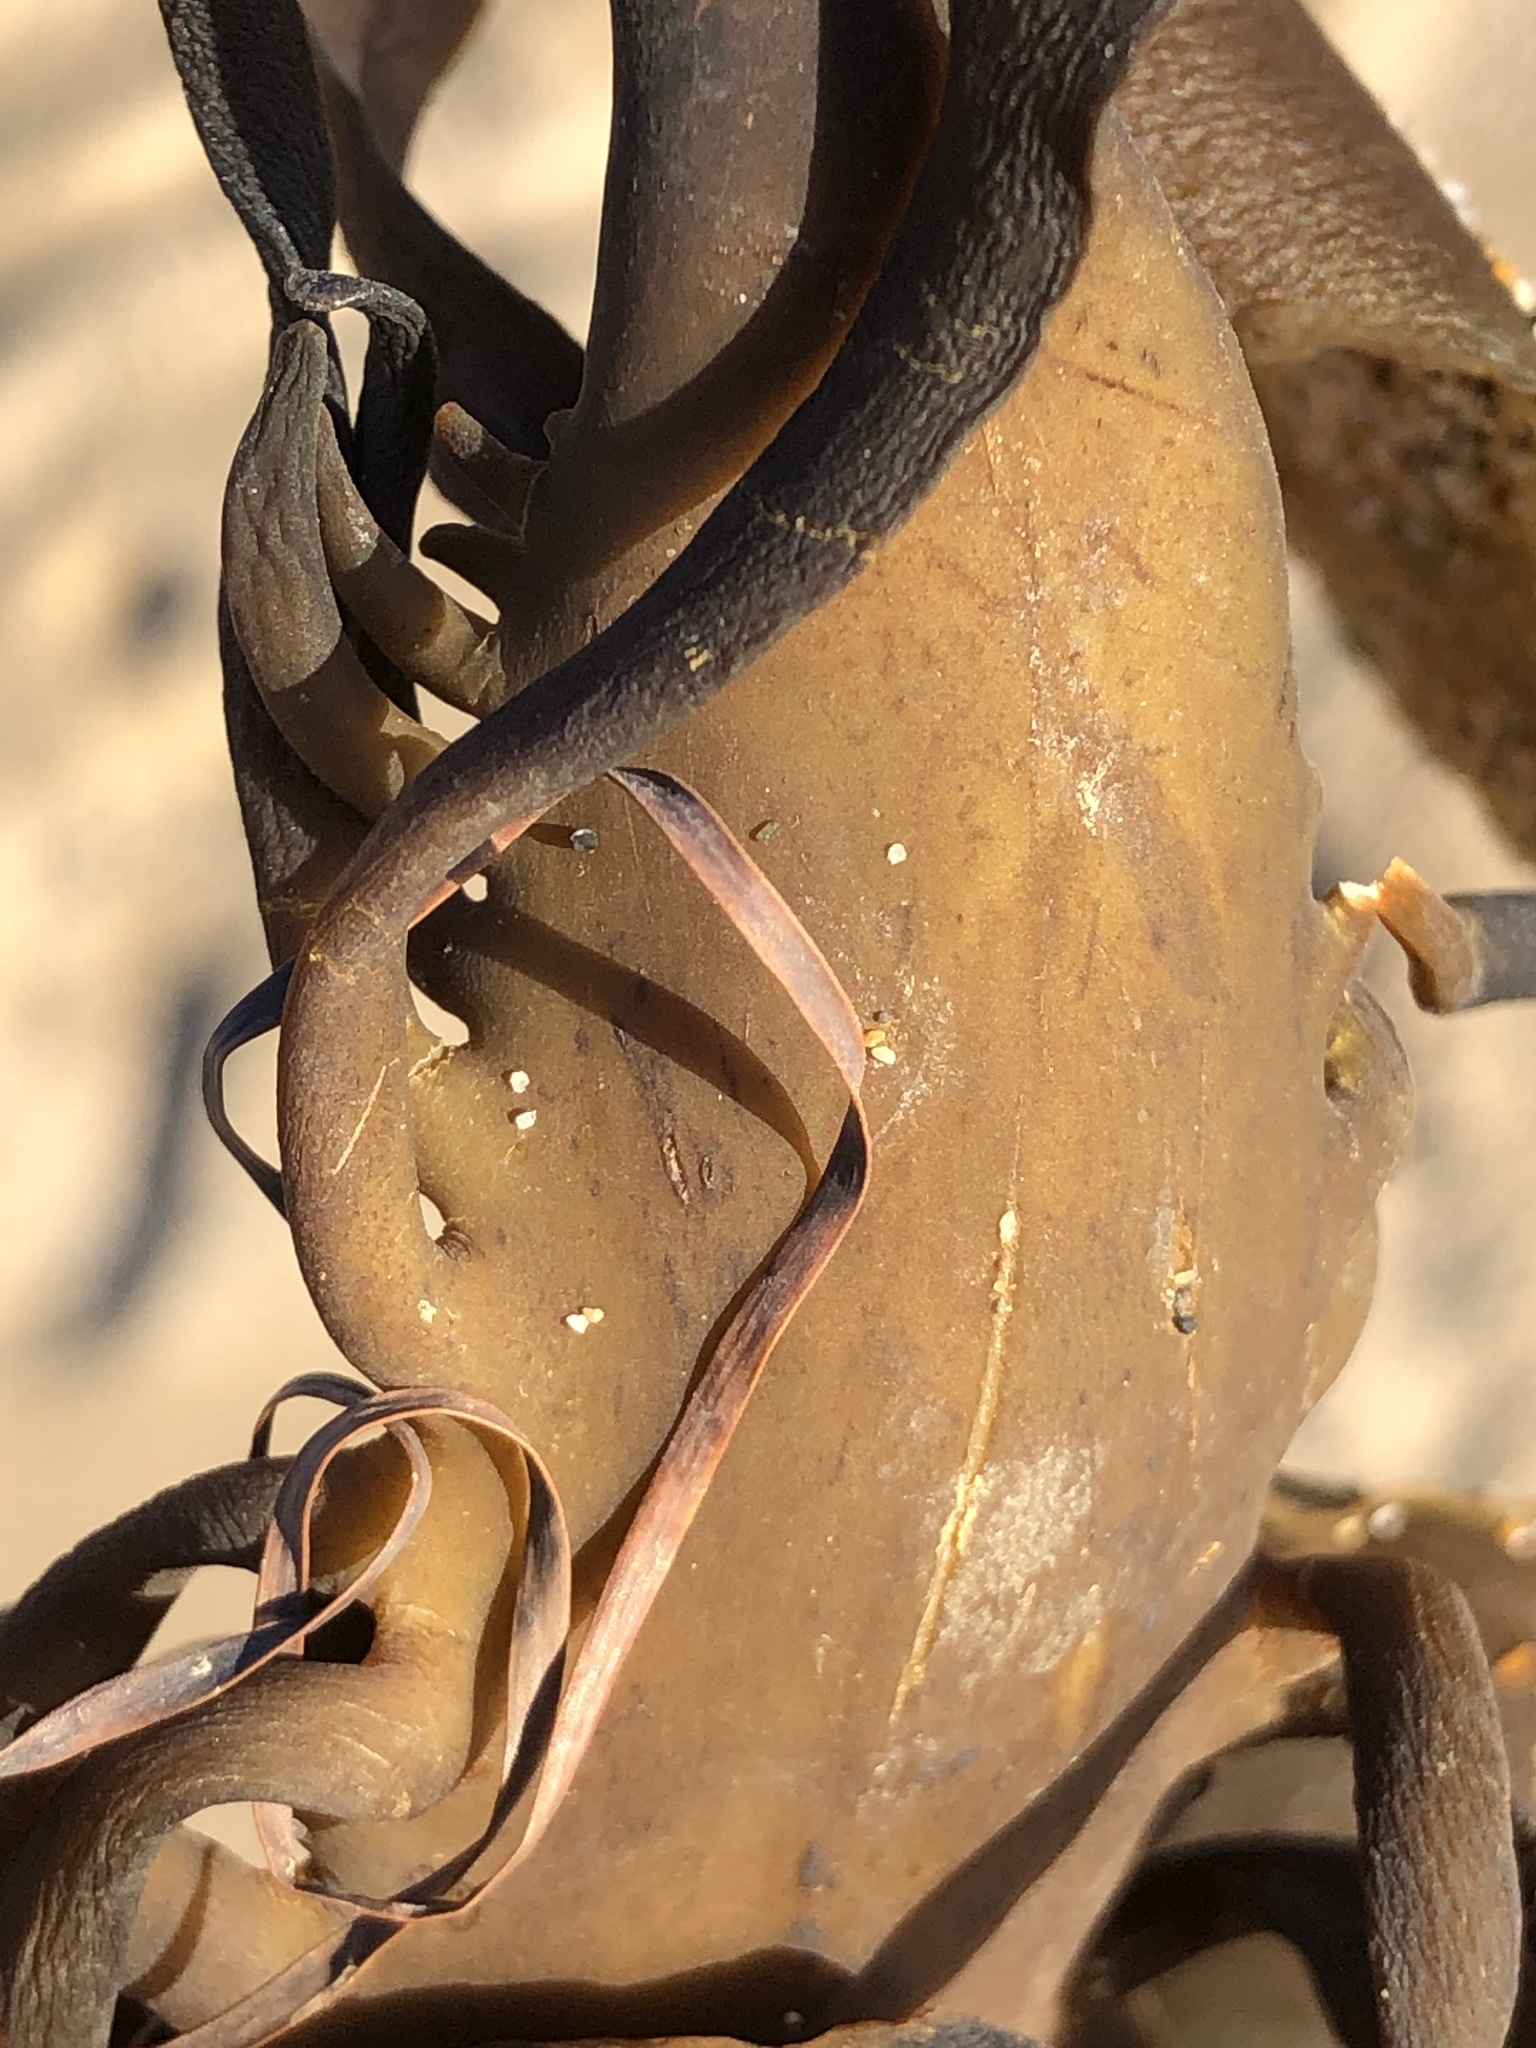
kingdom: Chromista
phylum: Ochrophyta
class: Phaeophyceae
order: Laminariales
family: Alariaceae
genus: Pterygophora
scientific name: Pterygophora californica
